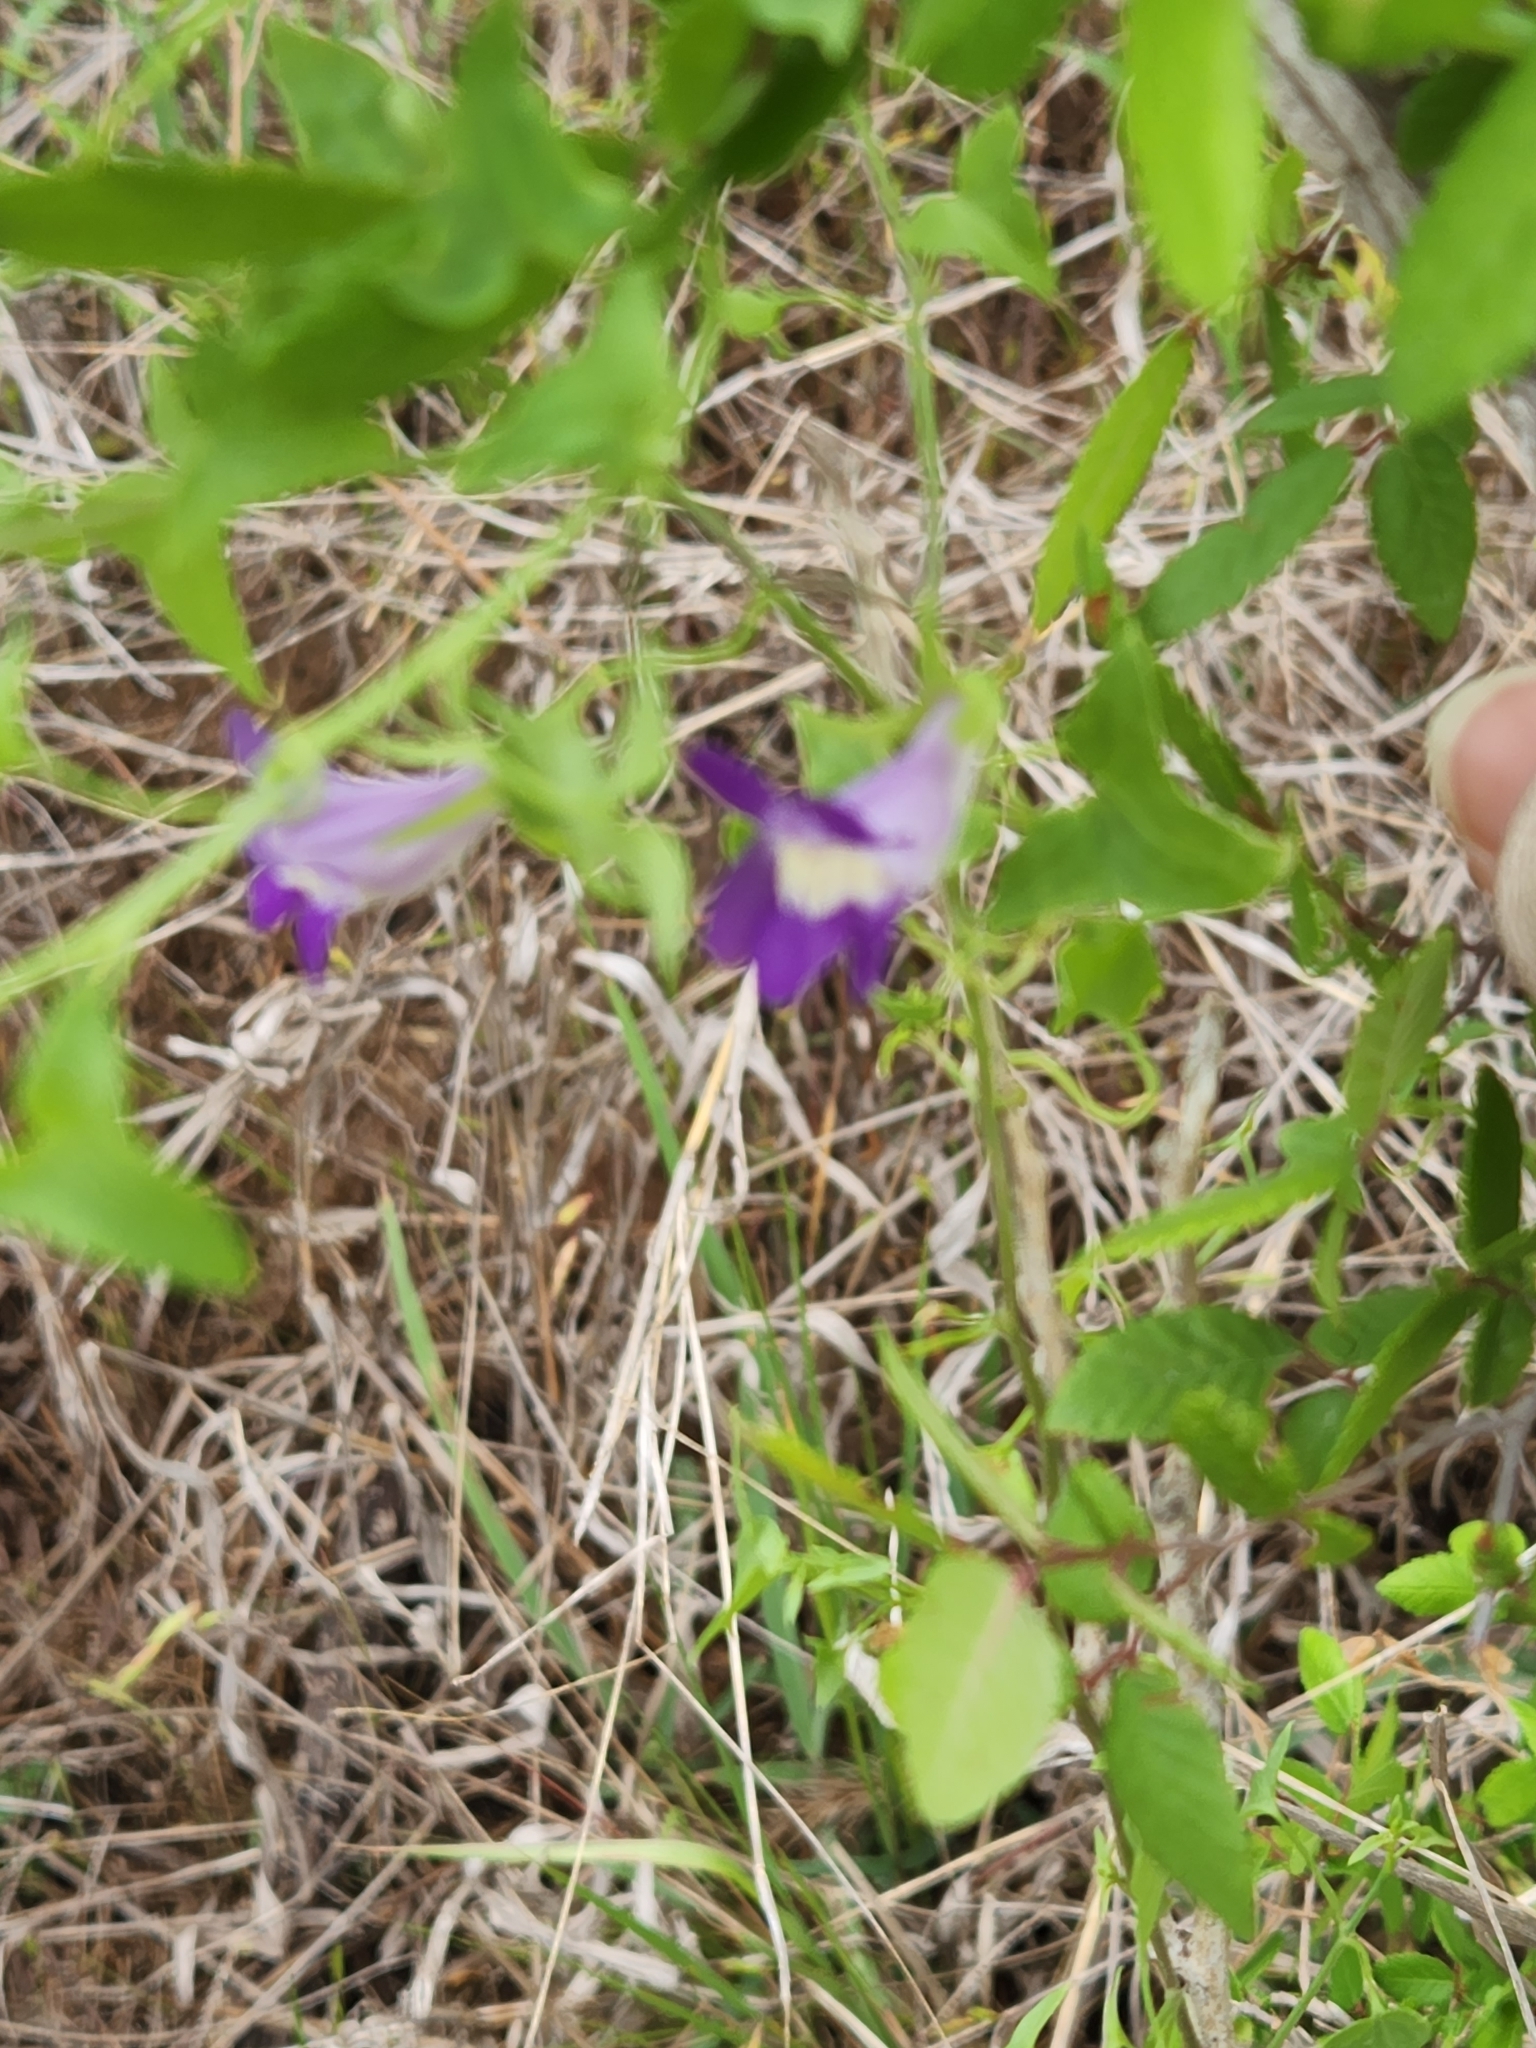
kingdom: Plantae
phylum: Tracheophyta
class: Magnoliopsida
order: Lamiales
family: Plantaginaceae
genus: Maurandella
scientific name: Maurandella antirrhiniflora
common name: Violet twining-snapdragon
